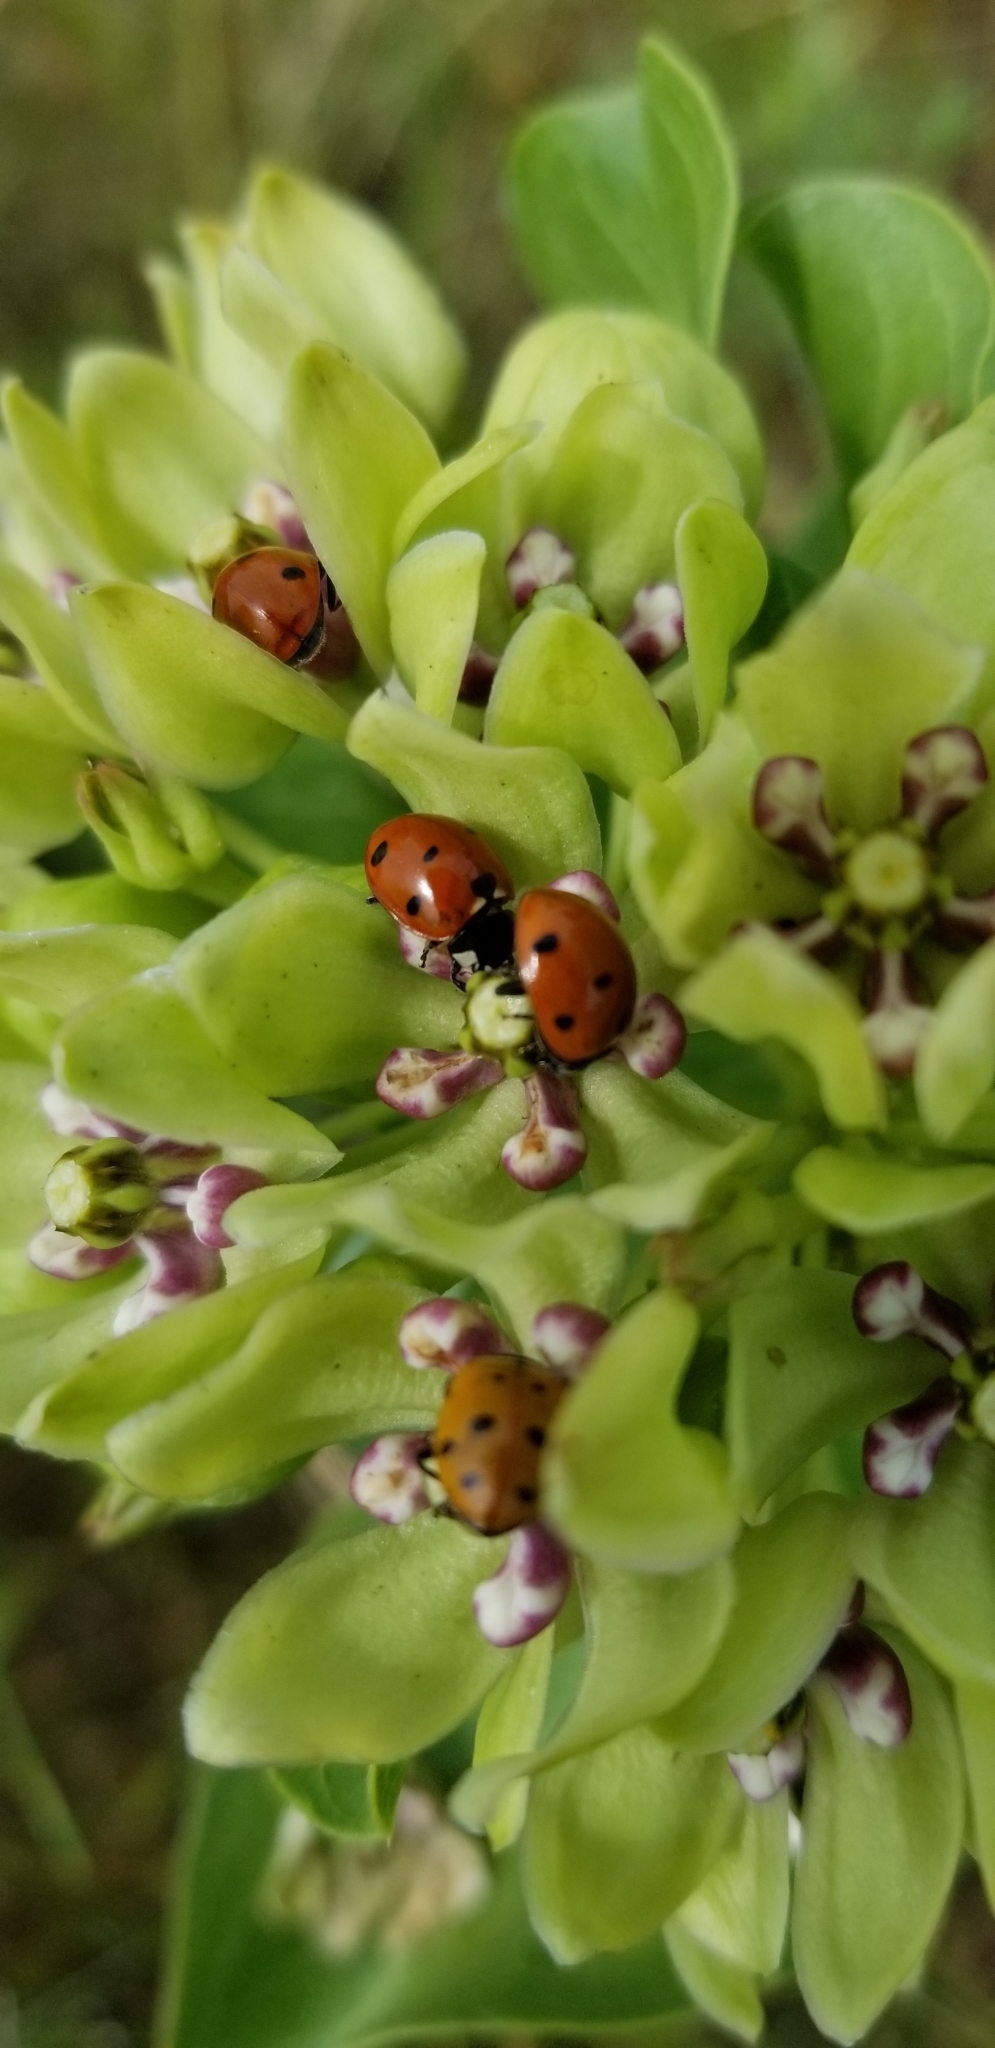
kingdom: Animalia
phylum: Arthropoda
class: Insecta
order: Coleoptera
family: Coccinellidae
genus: Coccinella
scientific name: Coccinella septempunctata
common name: Sevenspotted lady beetle
